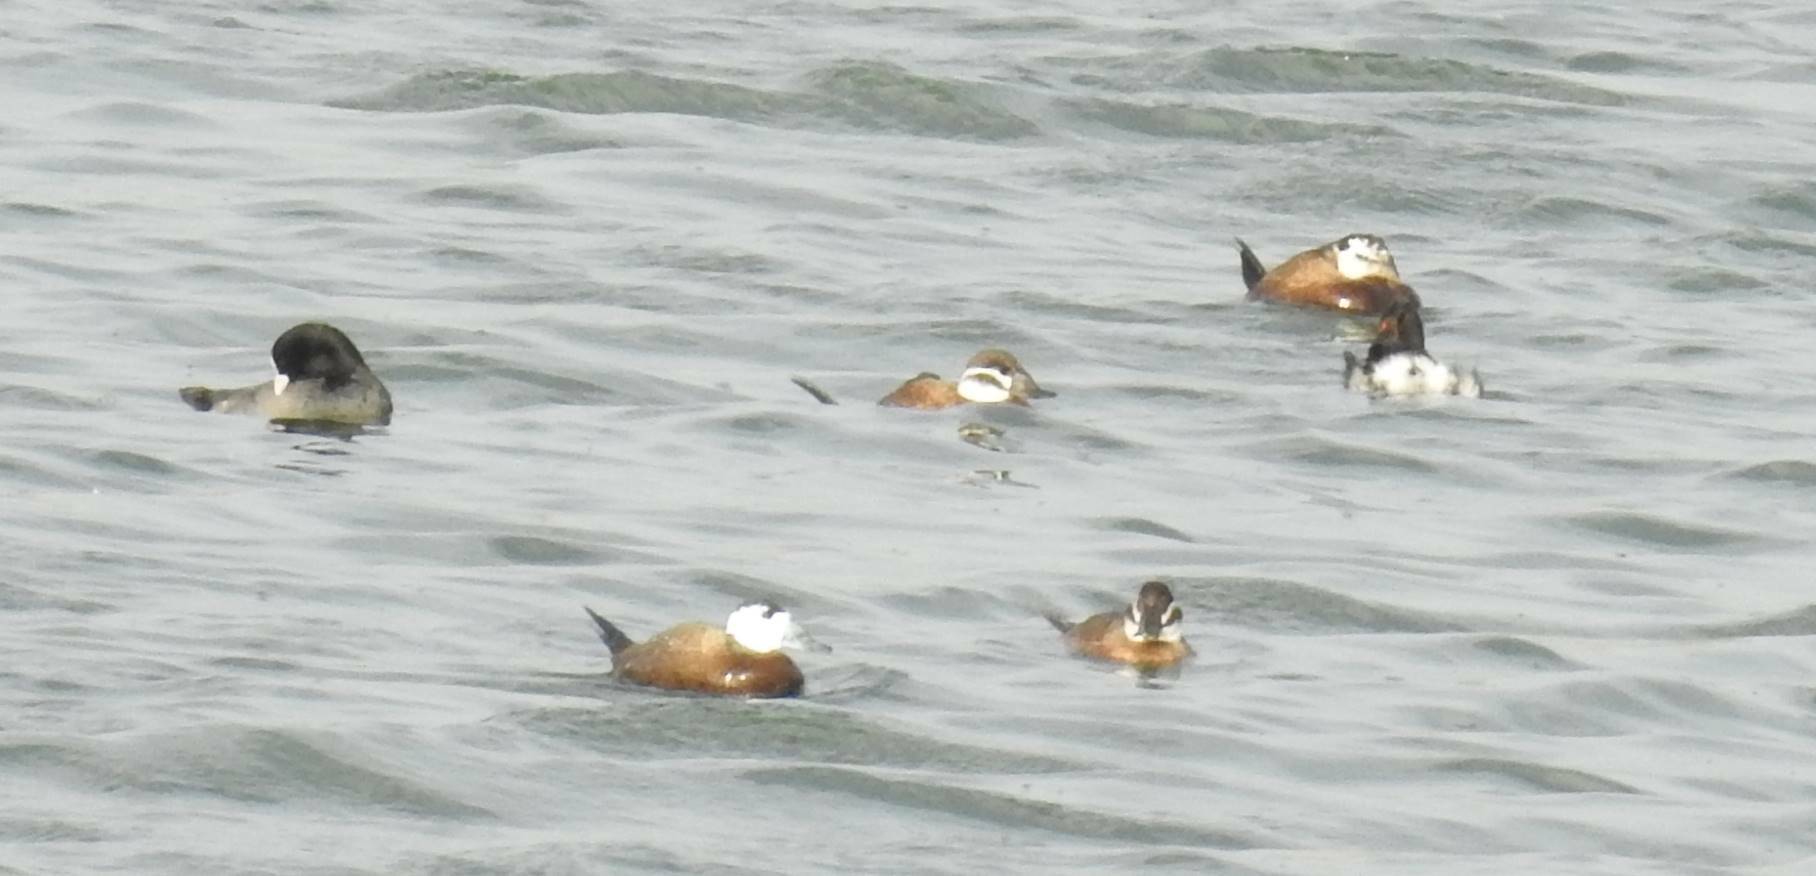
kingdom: Animalia
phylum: Chordata
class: Aves
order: Anseriformes
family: Anatidae
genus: Oxyura
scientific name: Oxyura leucocephala
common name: White-headed duck
